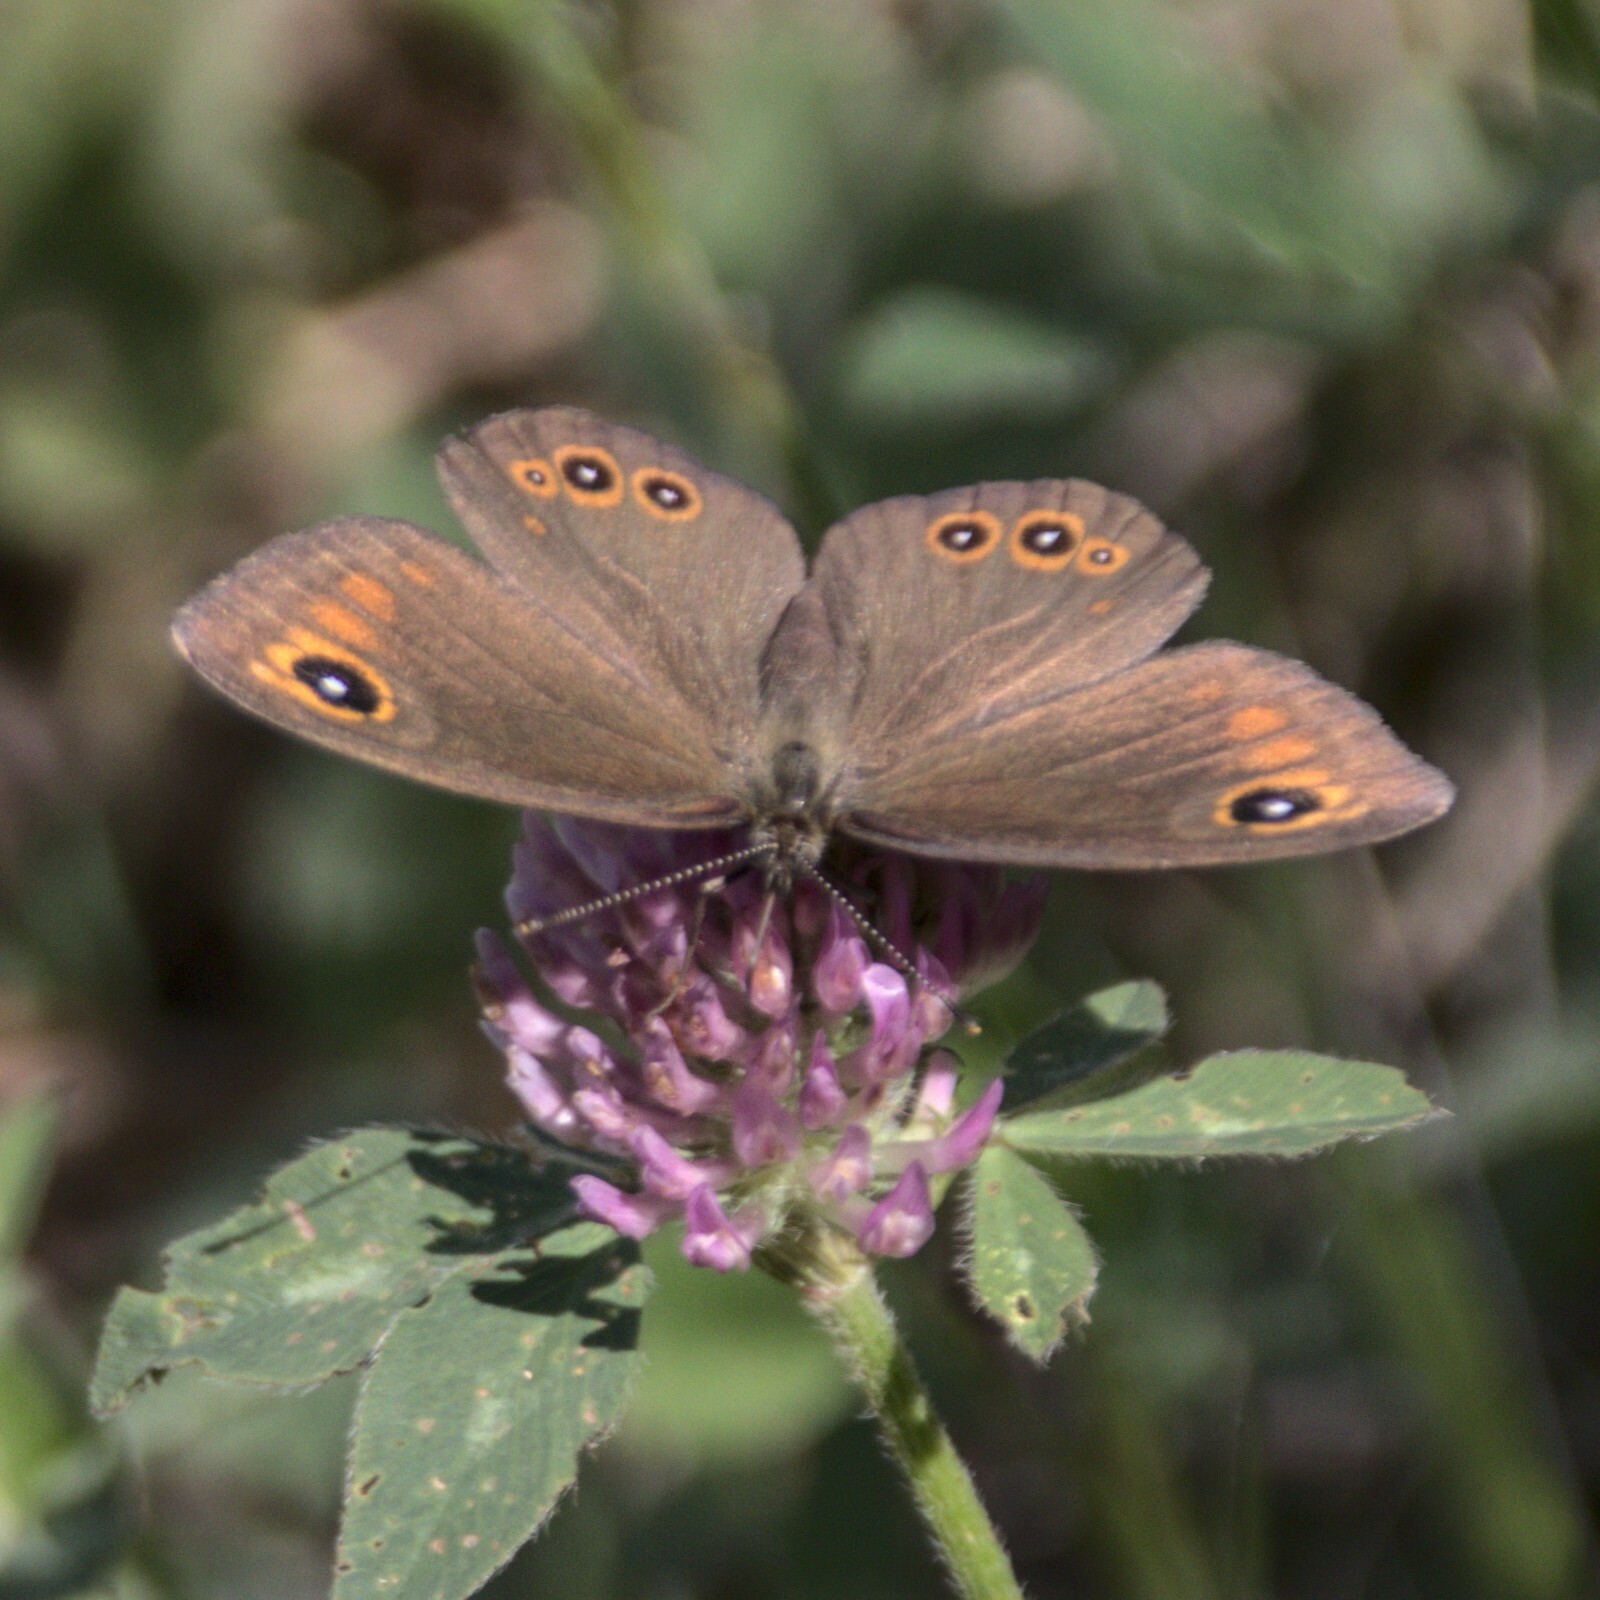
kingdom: Animalia
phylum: Arthropoda
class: Insecta
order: Lepidoptera
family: Nymphalidae
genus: Pararge
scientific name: Pararge Lasiommata maera
